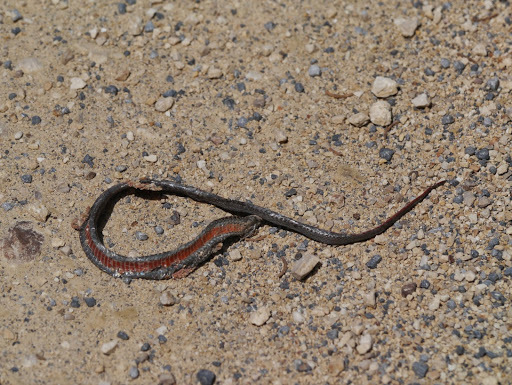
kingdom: Animalia
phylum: Chordata
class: Squamata
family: Colubridae
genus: Storeria
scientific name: Storeria occipitomaculata
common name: Redbelly snake
